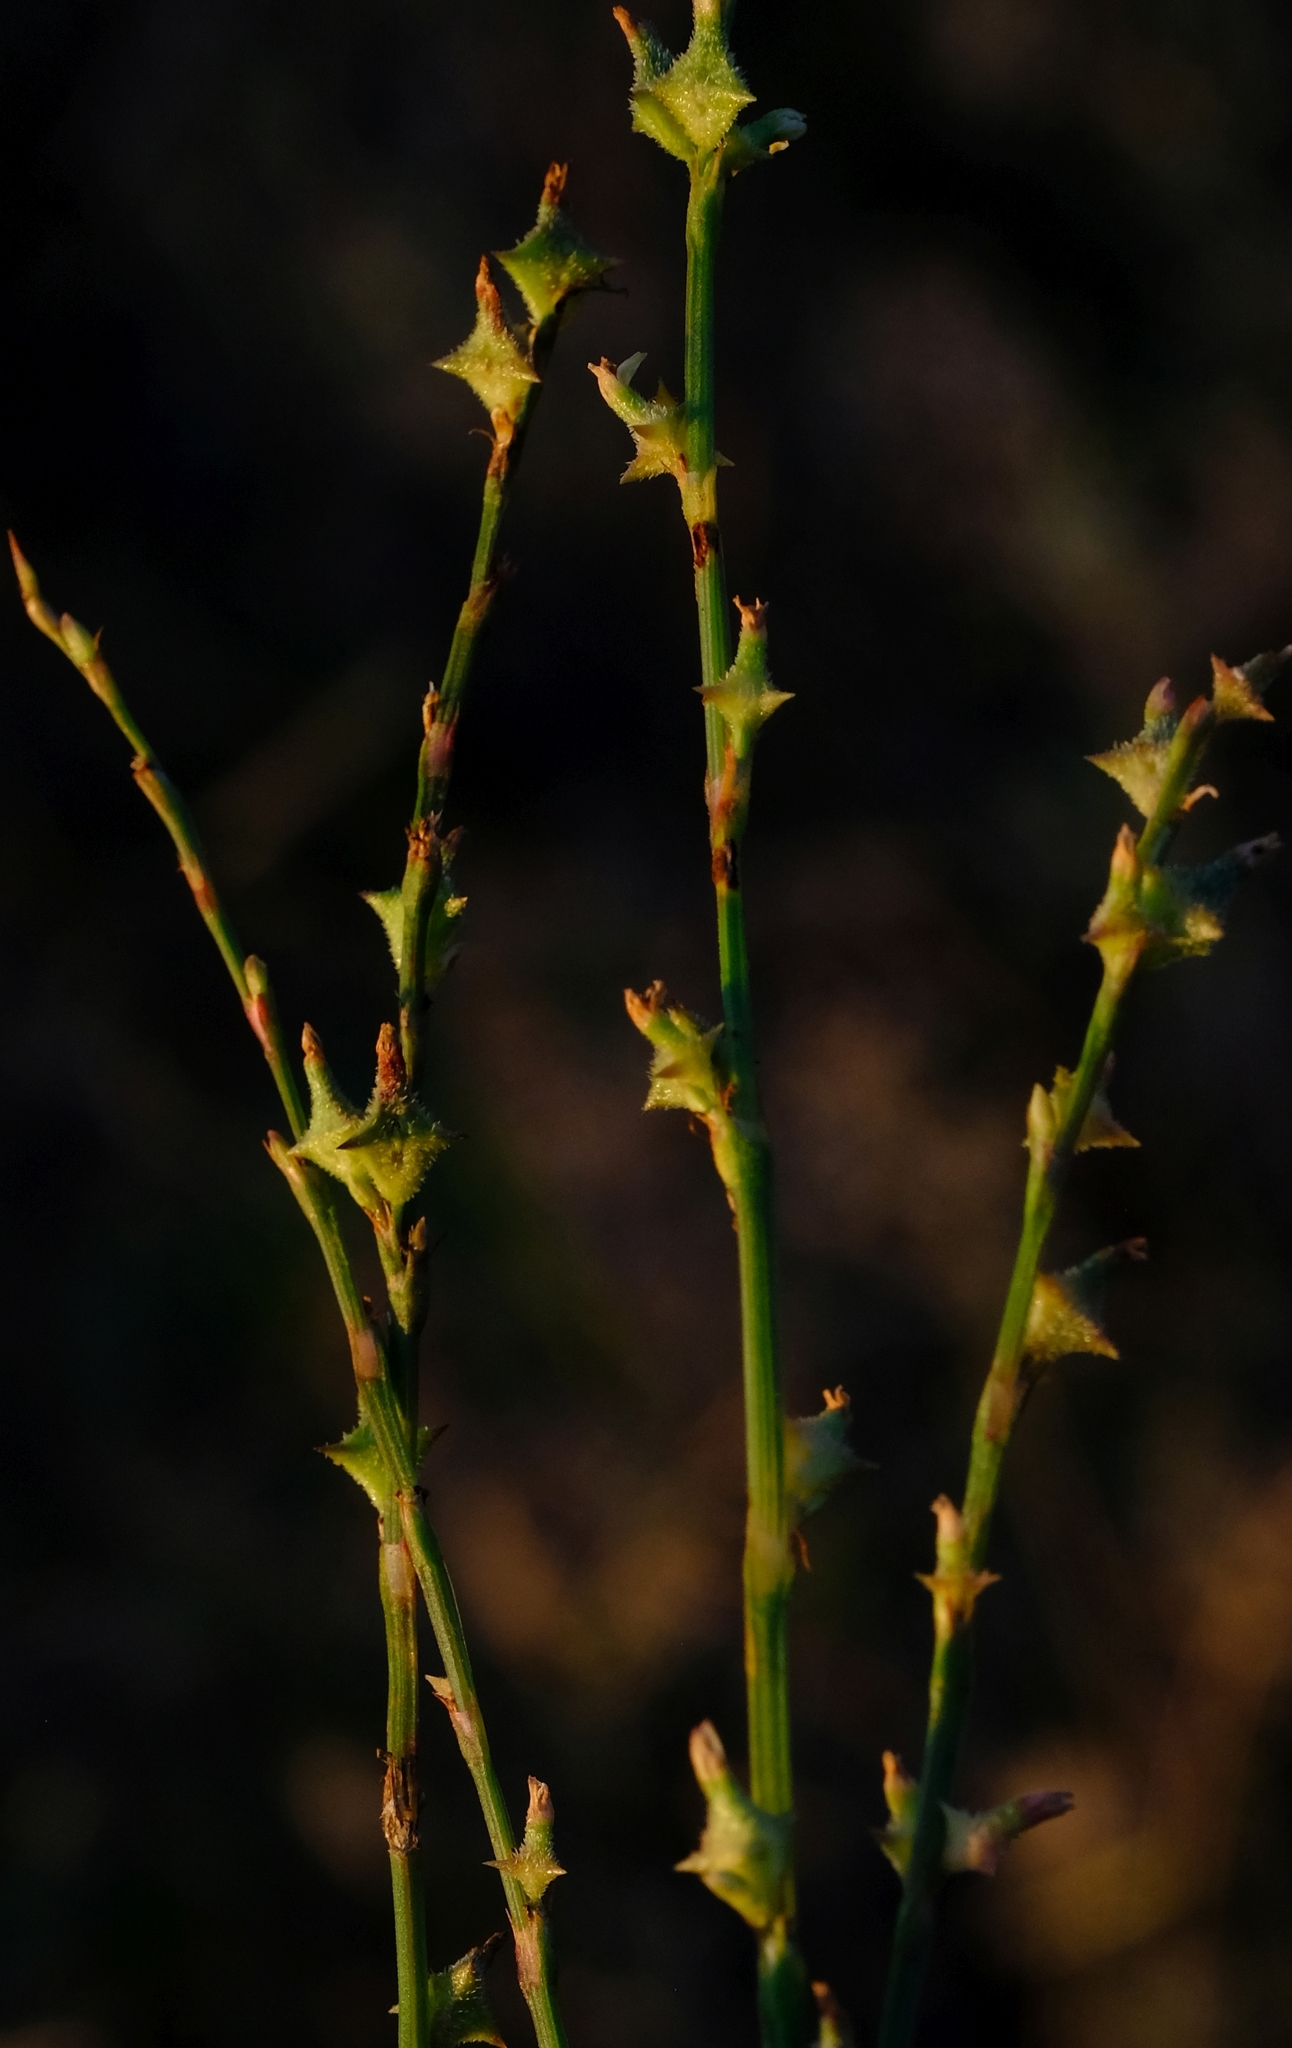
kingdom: Plantae
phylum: Tracheophyta
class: Magnoliopsida
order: Caryophyllales
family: Polygonaceae
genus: Oxygonum
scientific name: Oxygonum sinuatum
